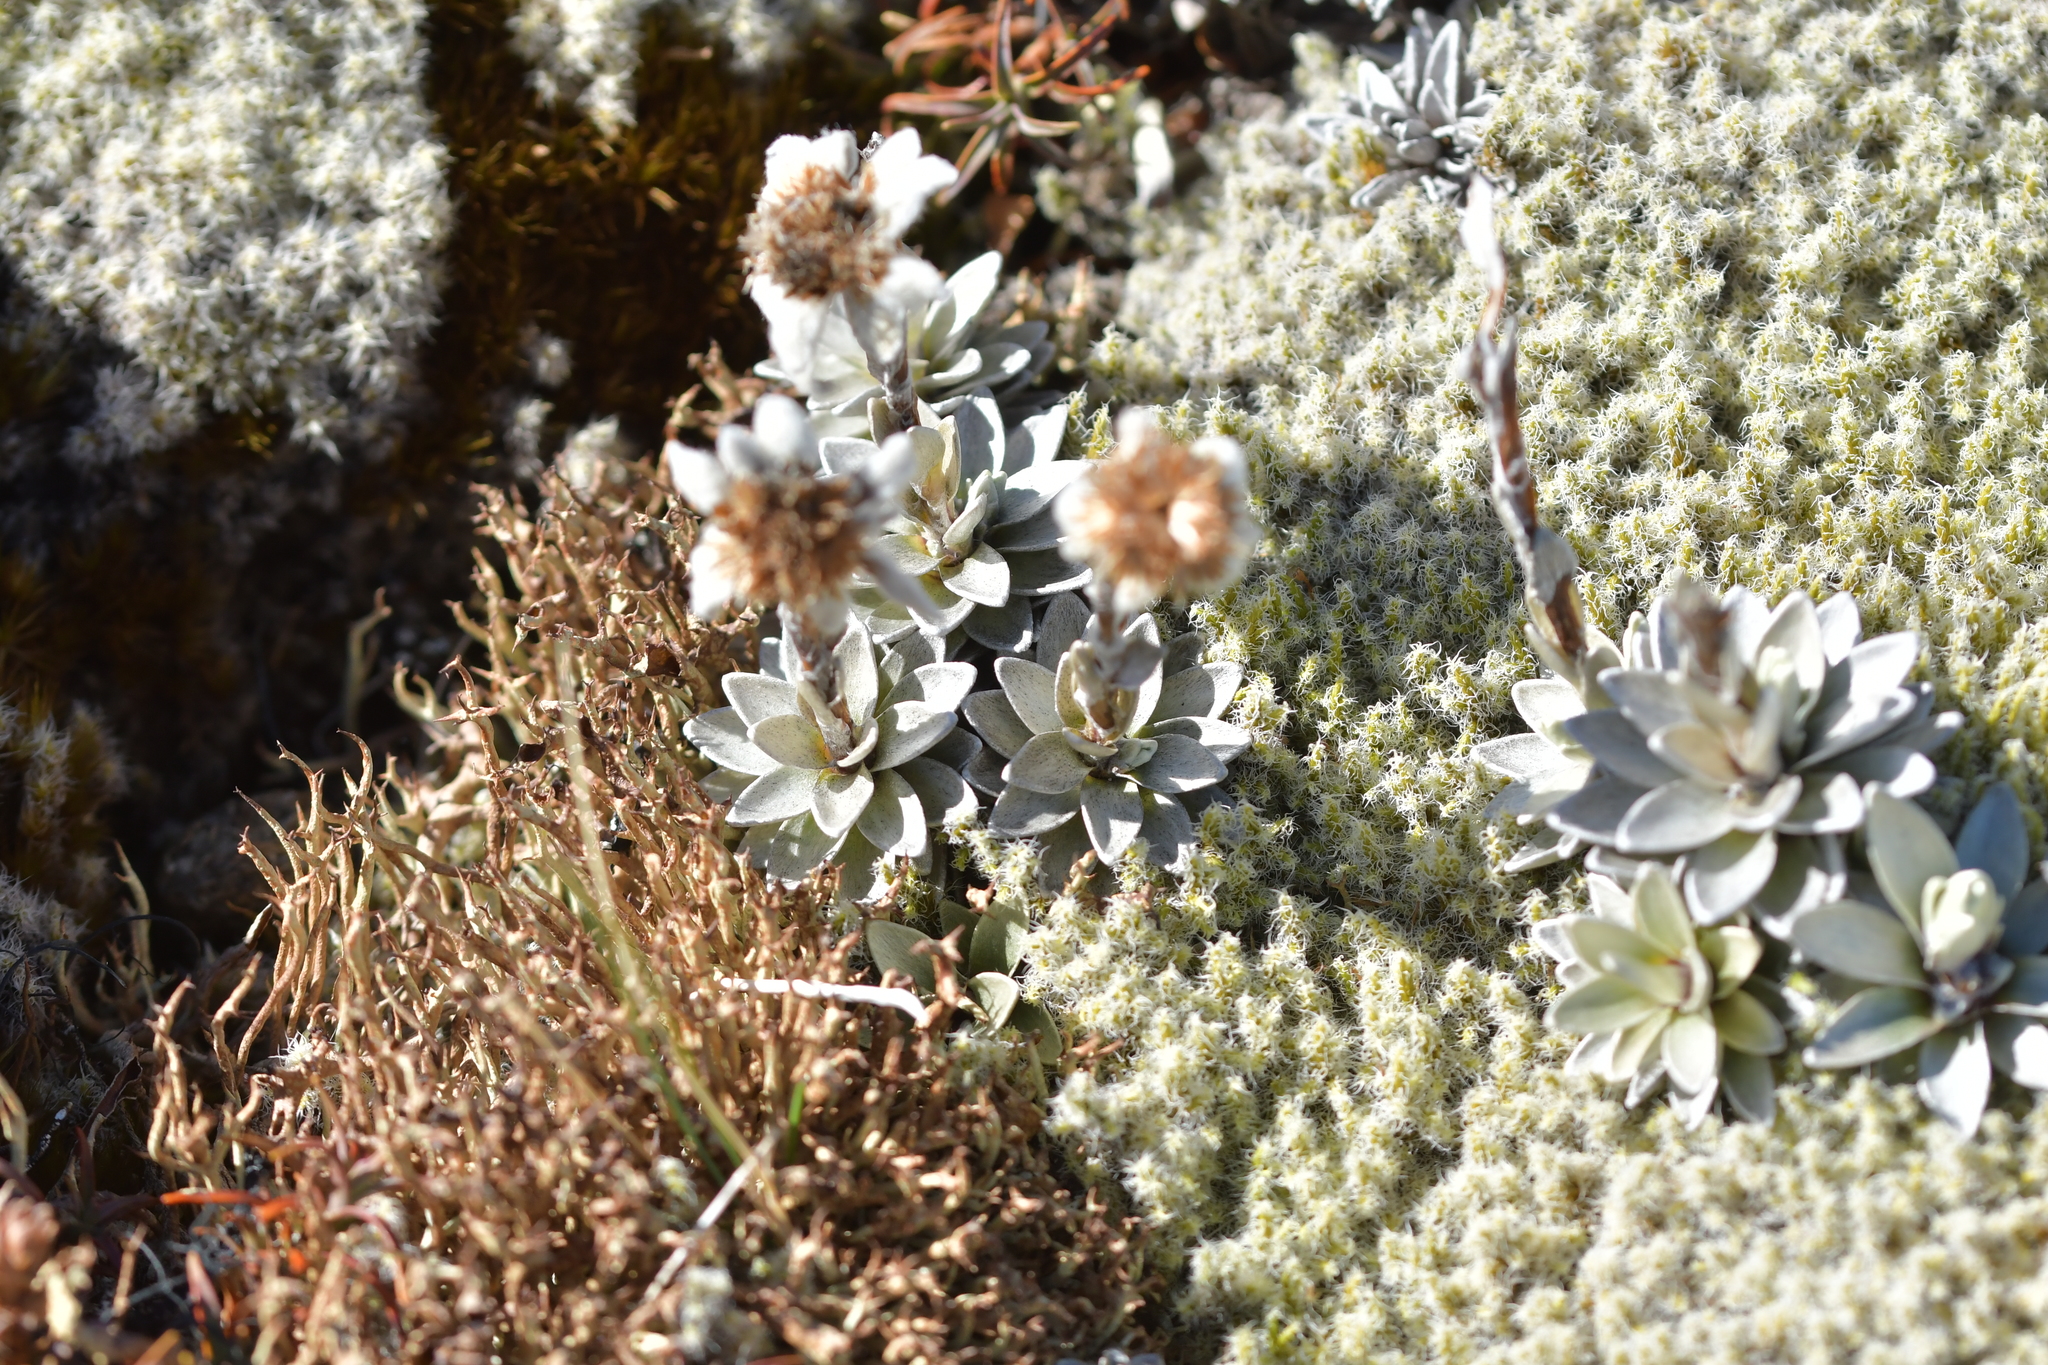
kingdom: Plantae
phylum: Tracheophyta
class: Magnoliopsida
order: Asterales
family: Asteraceae
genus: Leucogenes
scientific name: Leucogenes leontopodium
